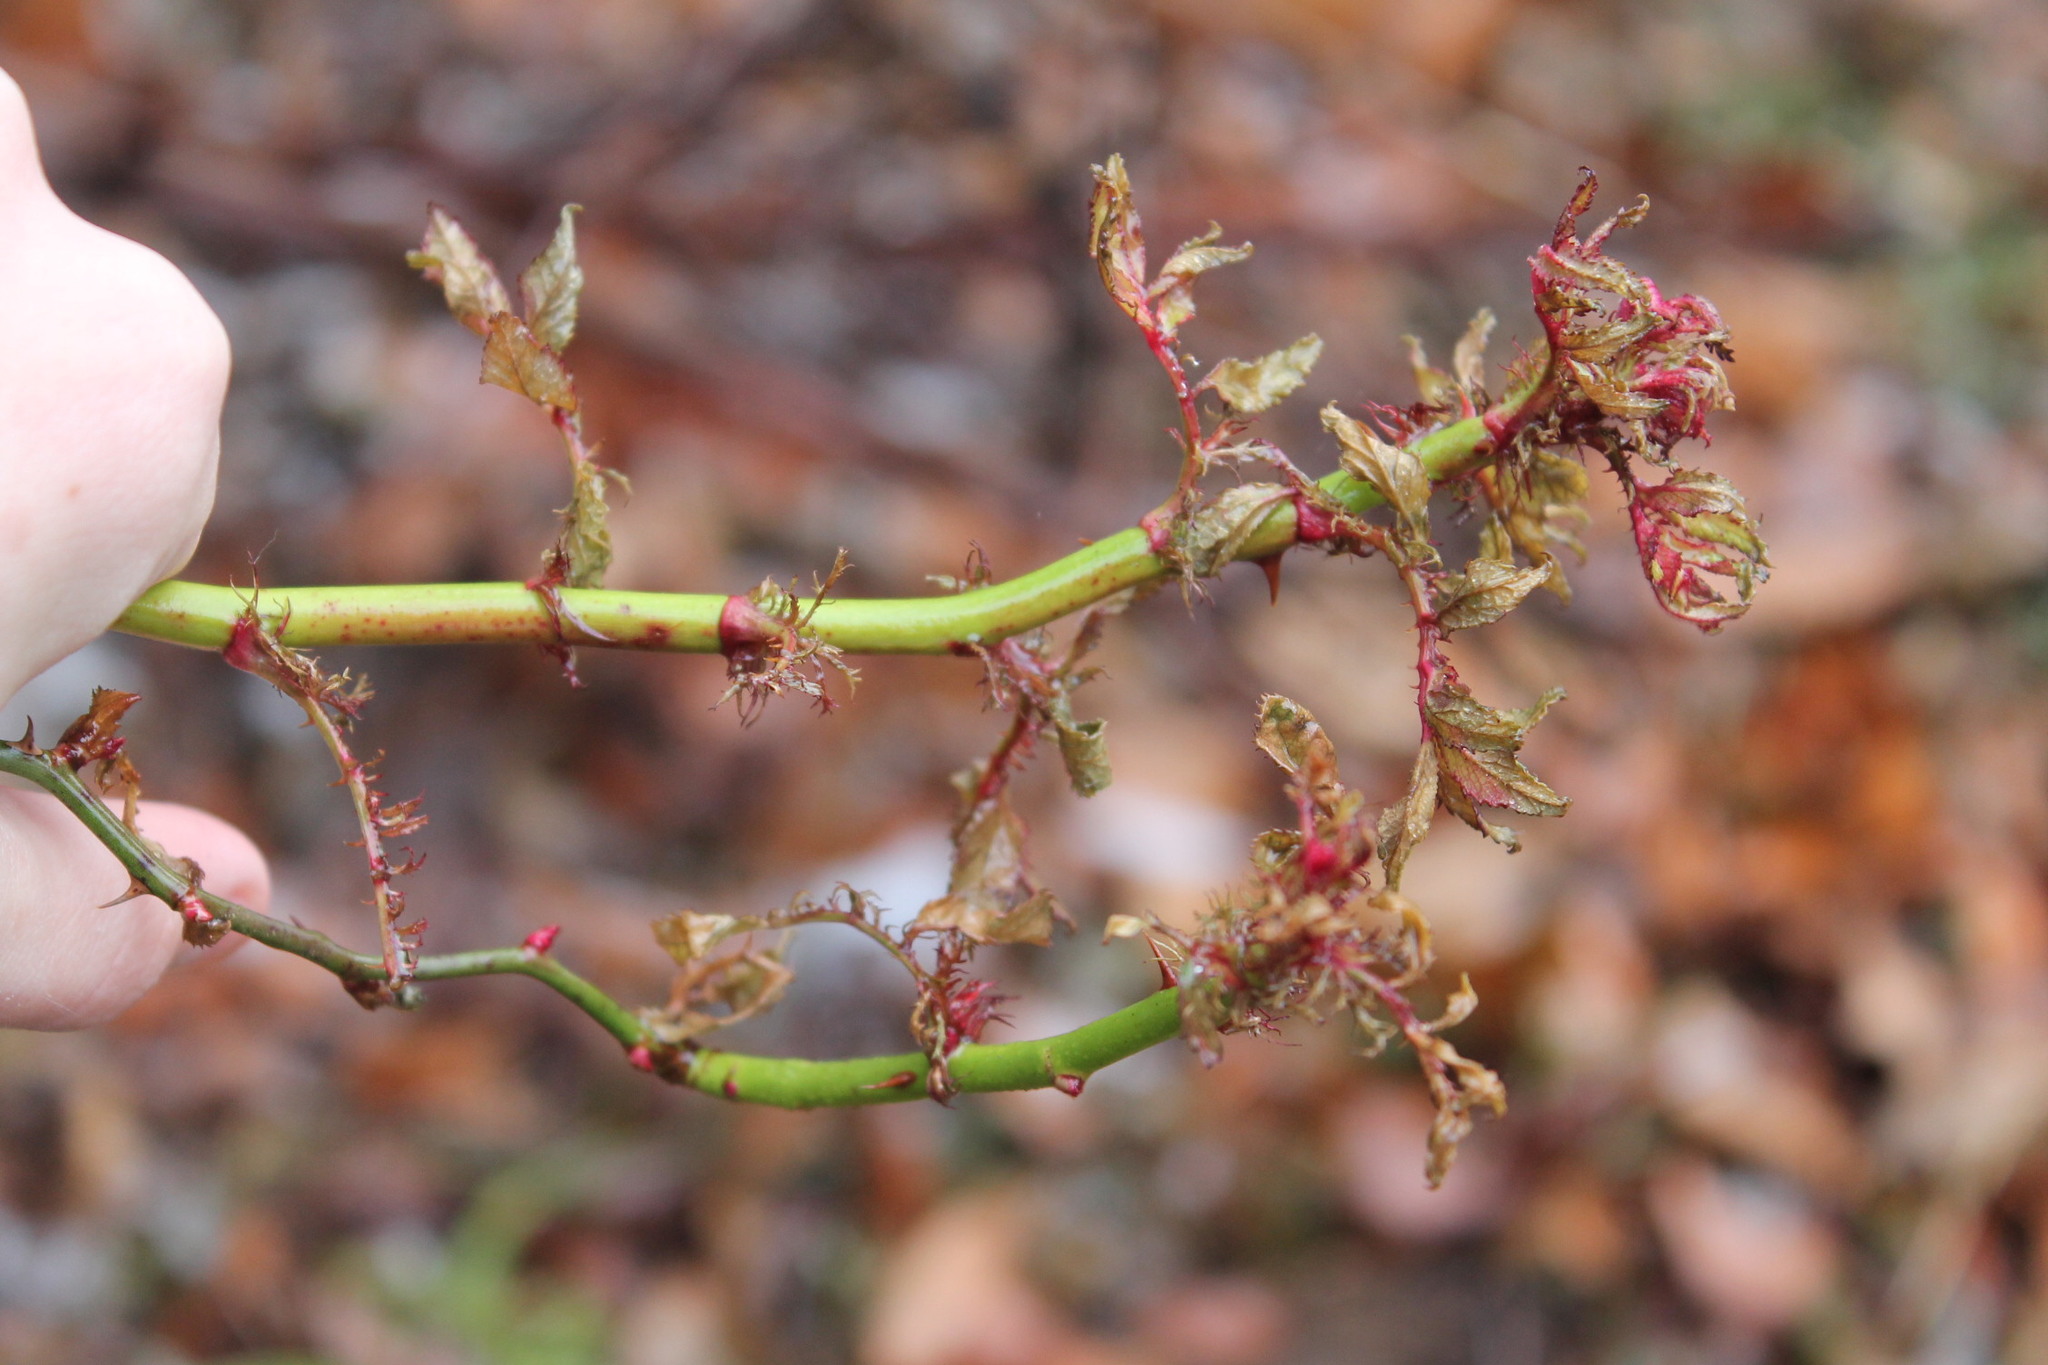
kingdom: Viruses
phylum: Negarnaviricota
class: Ellioviricetes
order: Bunyavirales
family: Fimoviridae
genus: Emaravirus
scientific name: Emaravirus rosae
